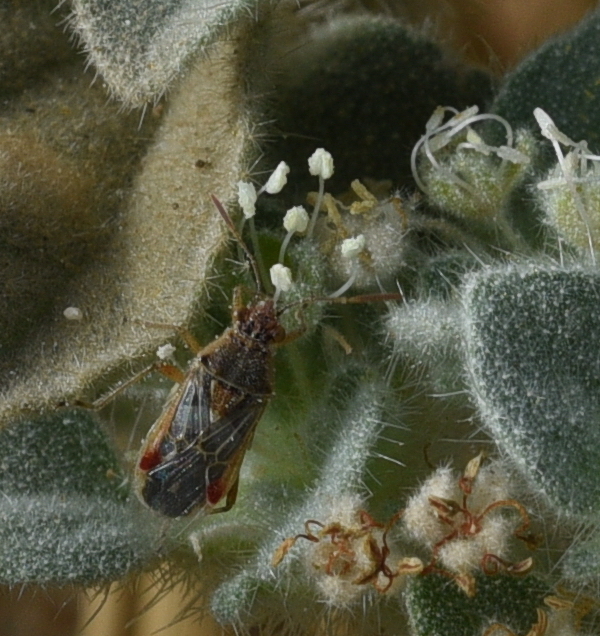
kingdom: Animalia
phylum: Arthropoda
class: Insecta
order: Hemiptera
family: Rhopalidae
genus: Liorhyssus
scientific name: Liorhyssus hyalinus
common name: Scentless plant bug
